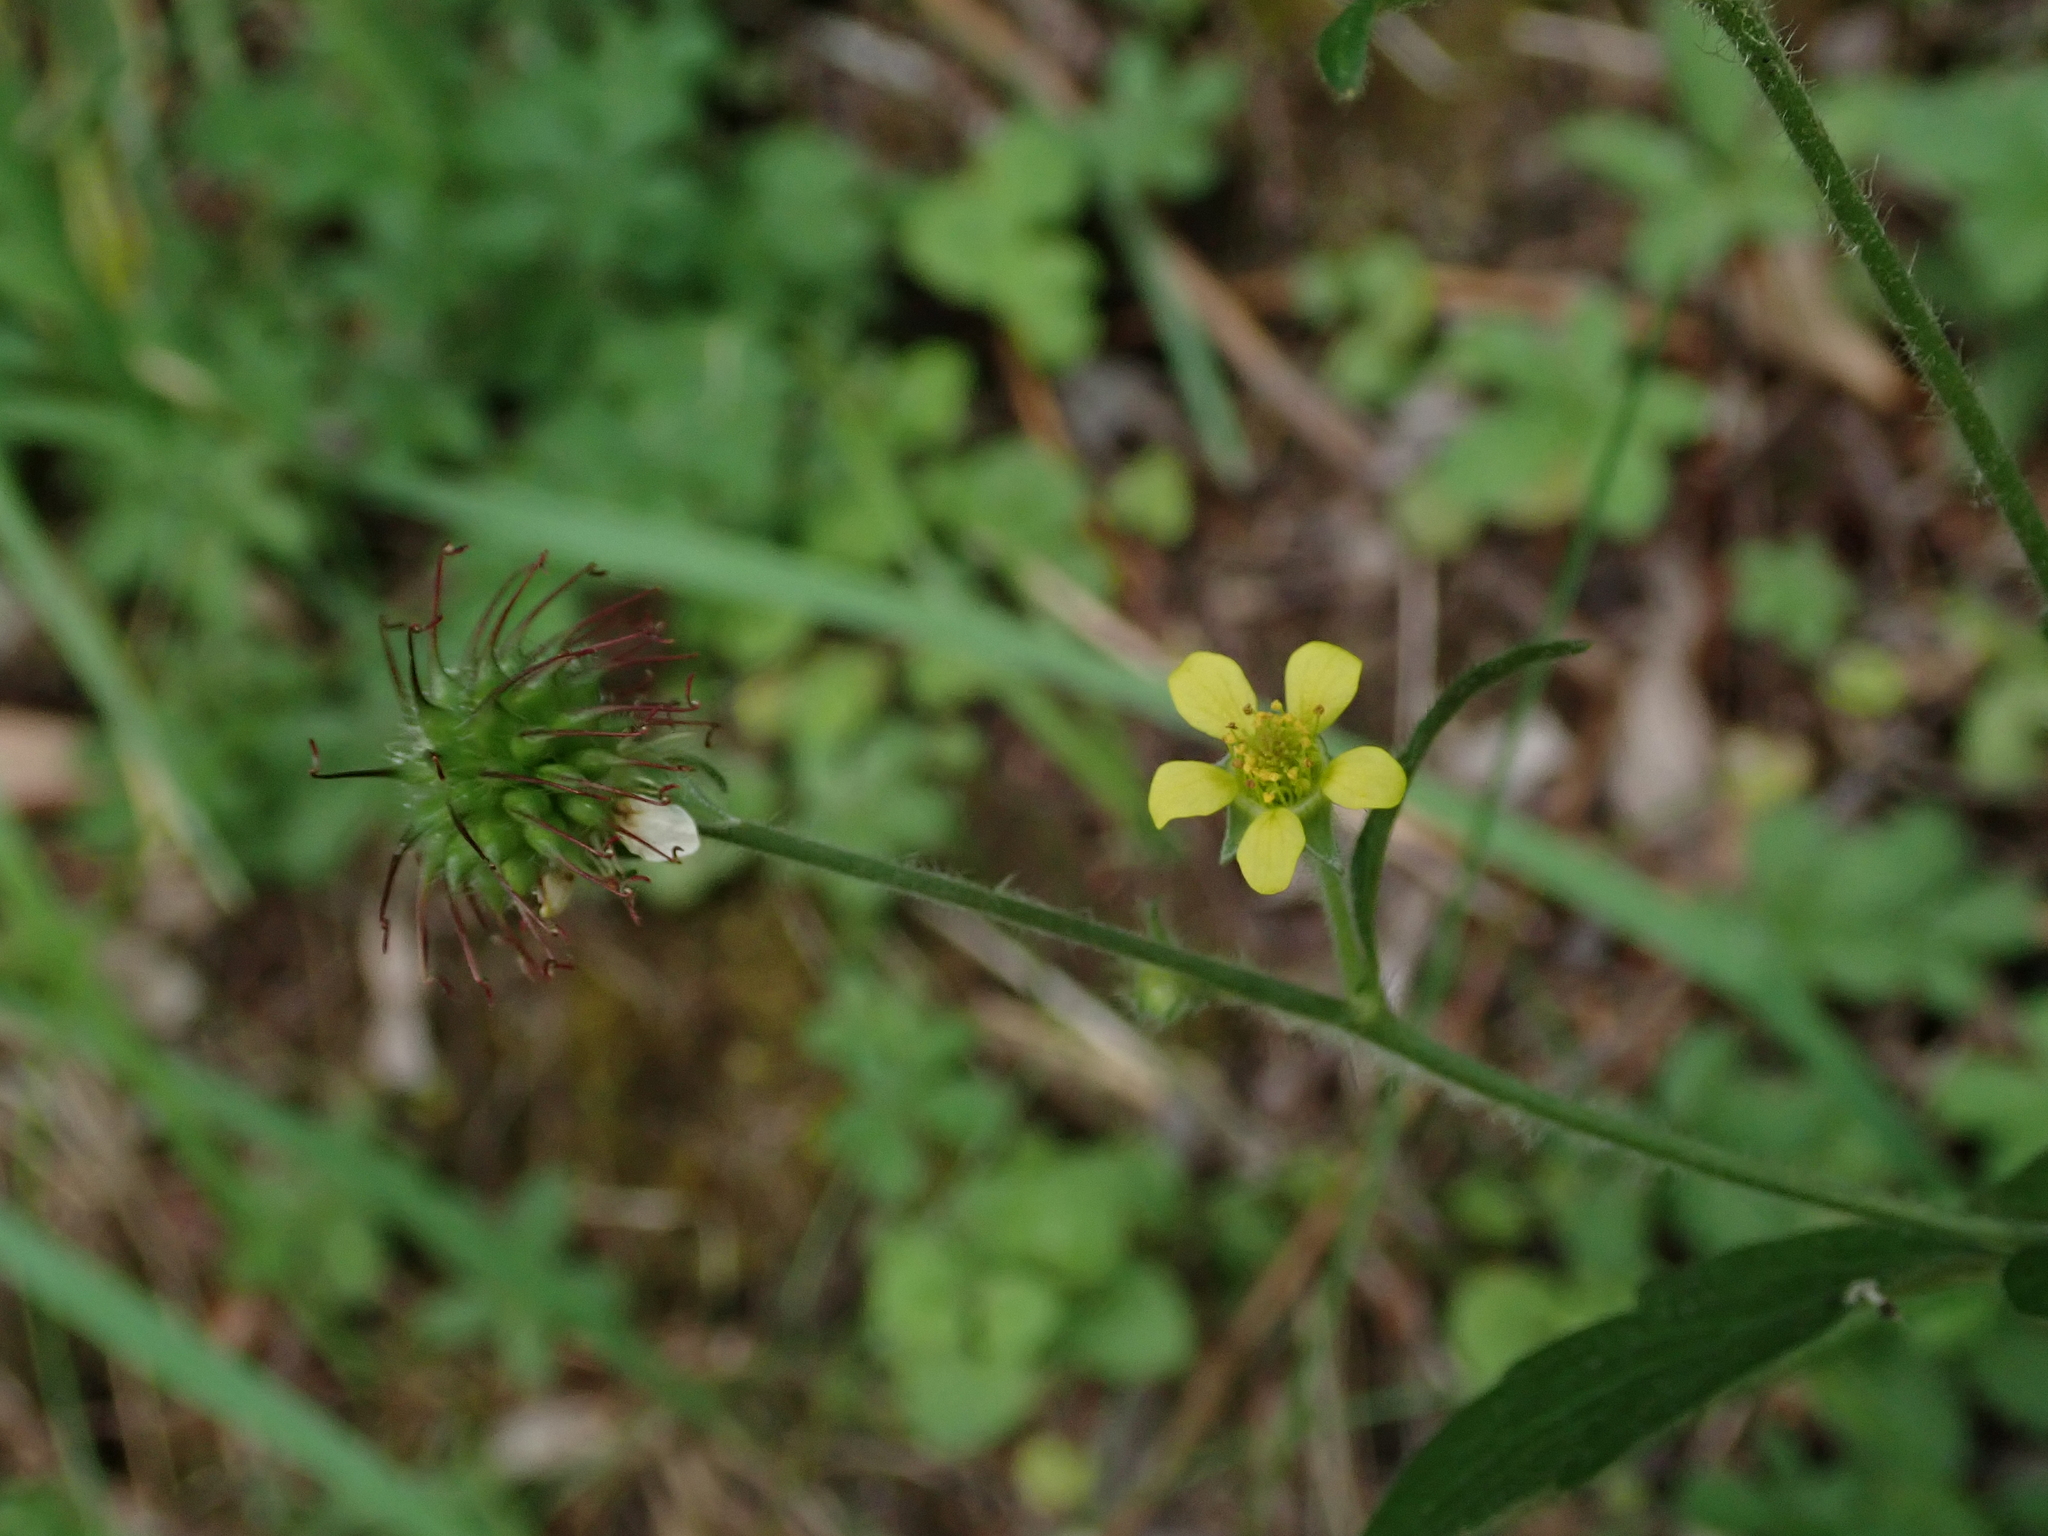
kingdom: Plantae
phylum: Tracheophyta
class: Magnoliopsida
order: Rosales
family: Rosaceae
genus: Geum
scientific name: Geum urbanum
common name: Wood avens
